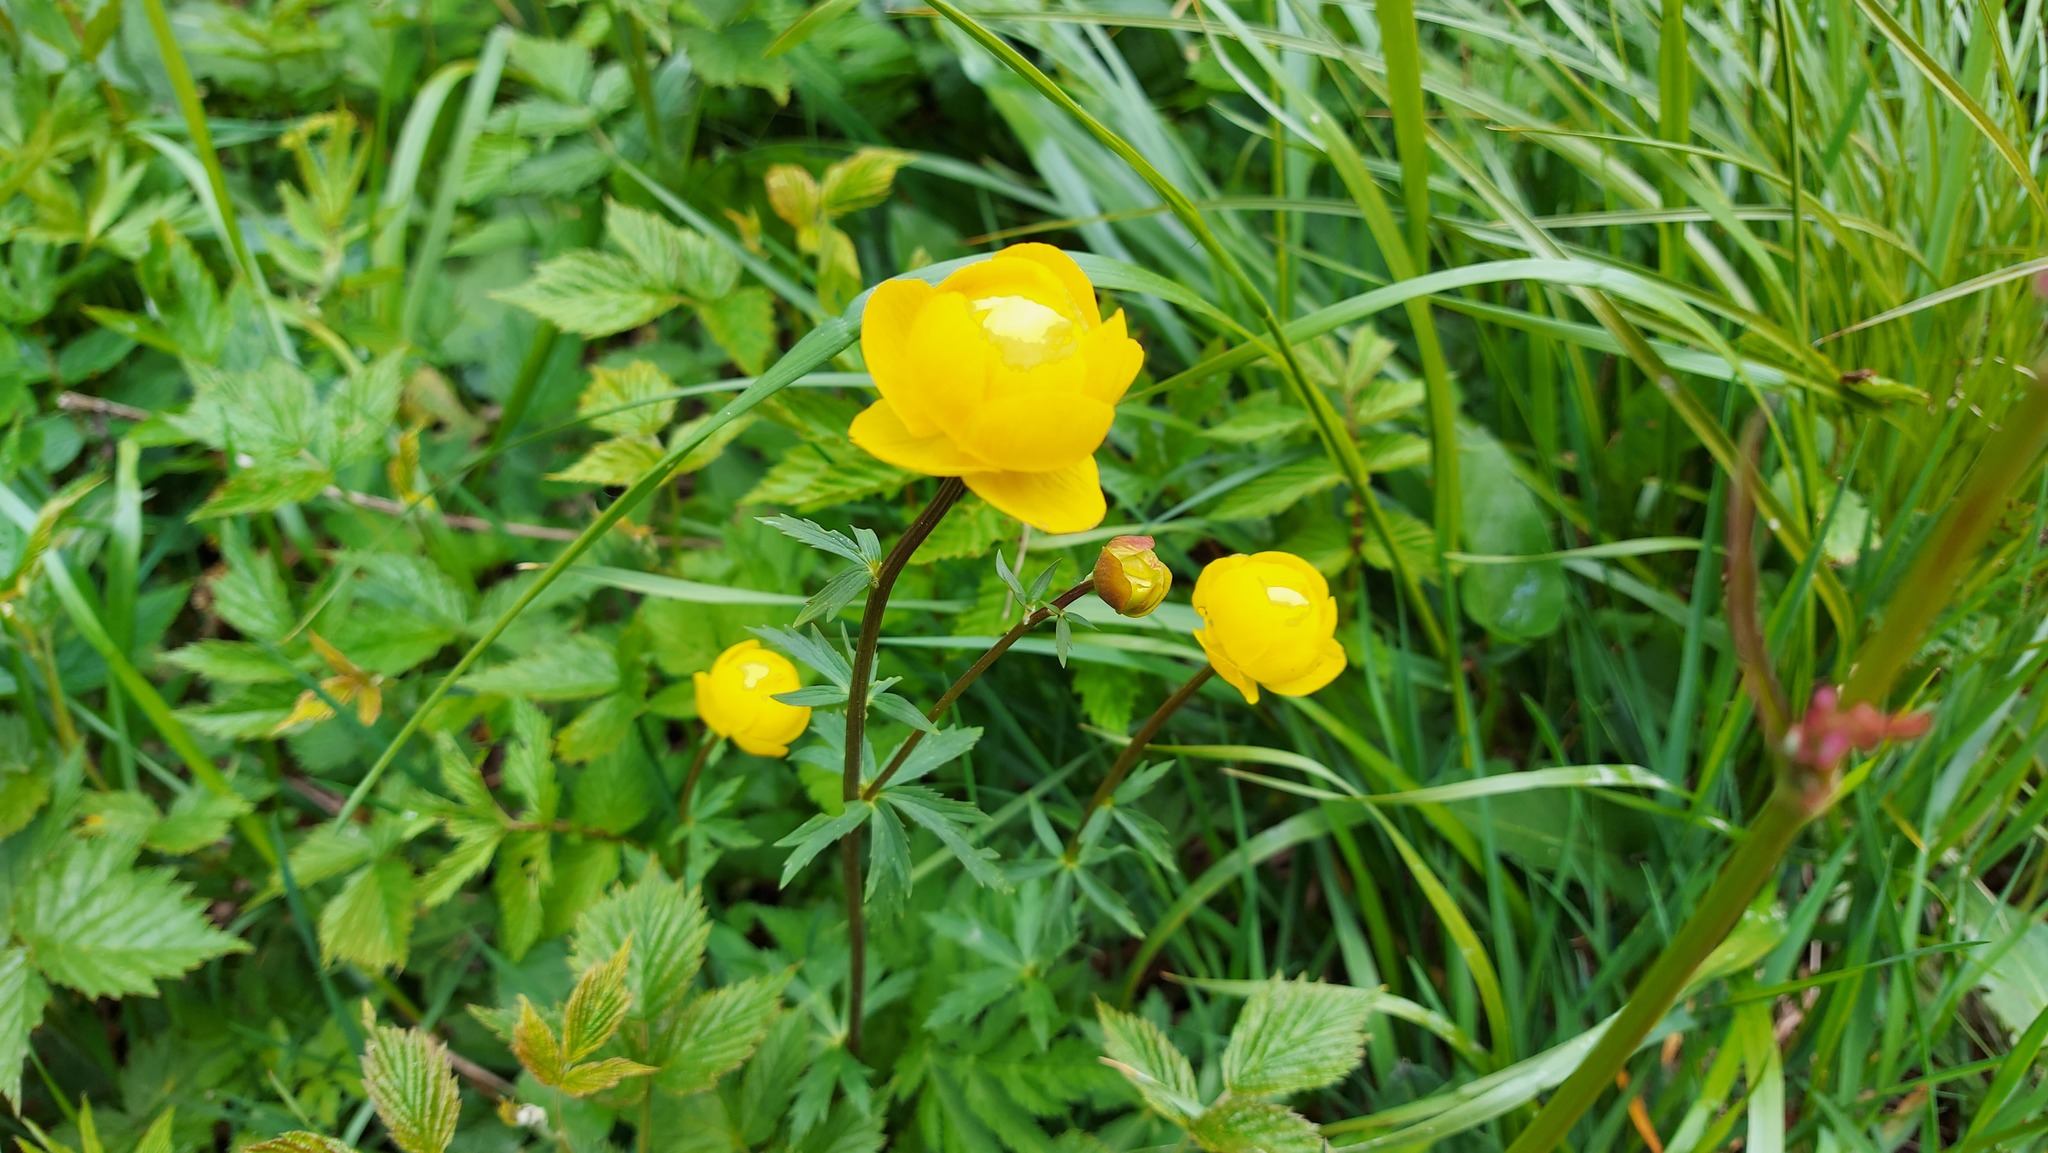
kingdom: Plantae
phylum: Tracheophyta
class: Magnoliopsida
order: Ranunculales
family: Ranunculaceae
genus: Trollius
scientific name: Trollius europaeus
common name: European globeflower
